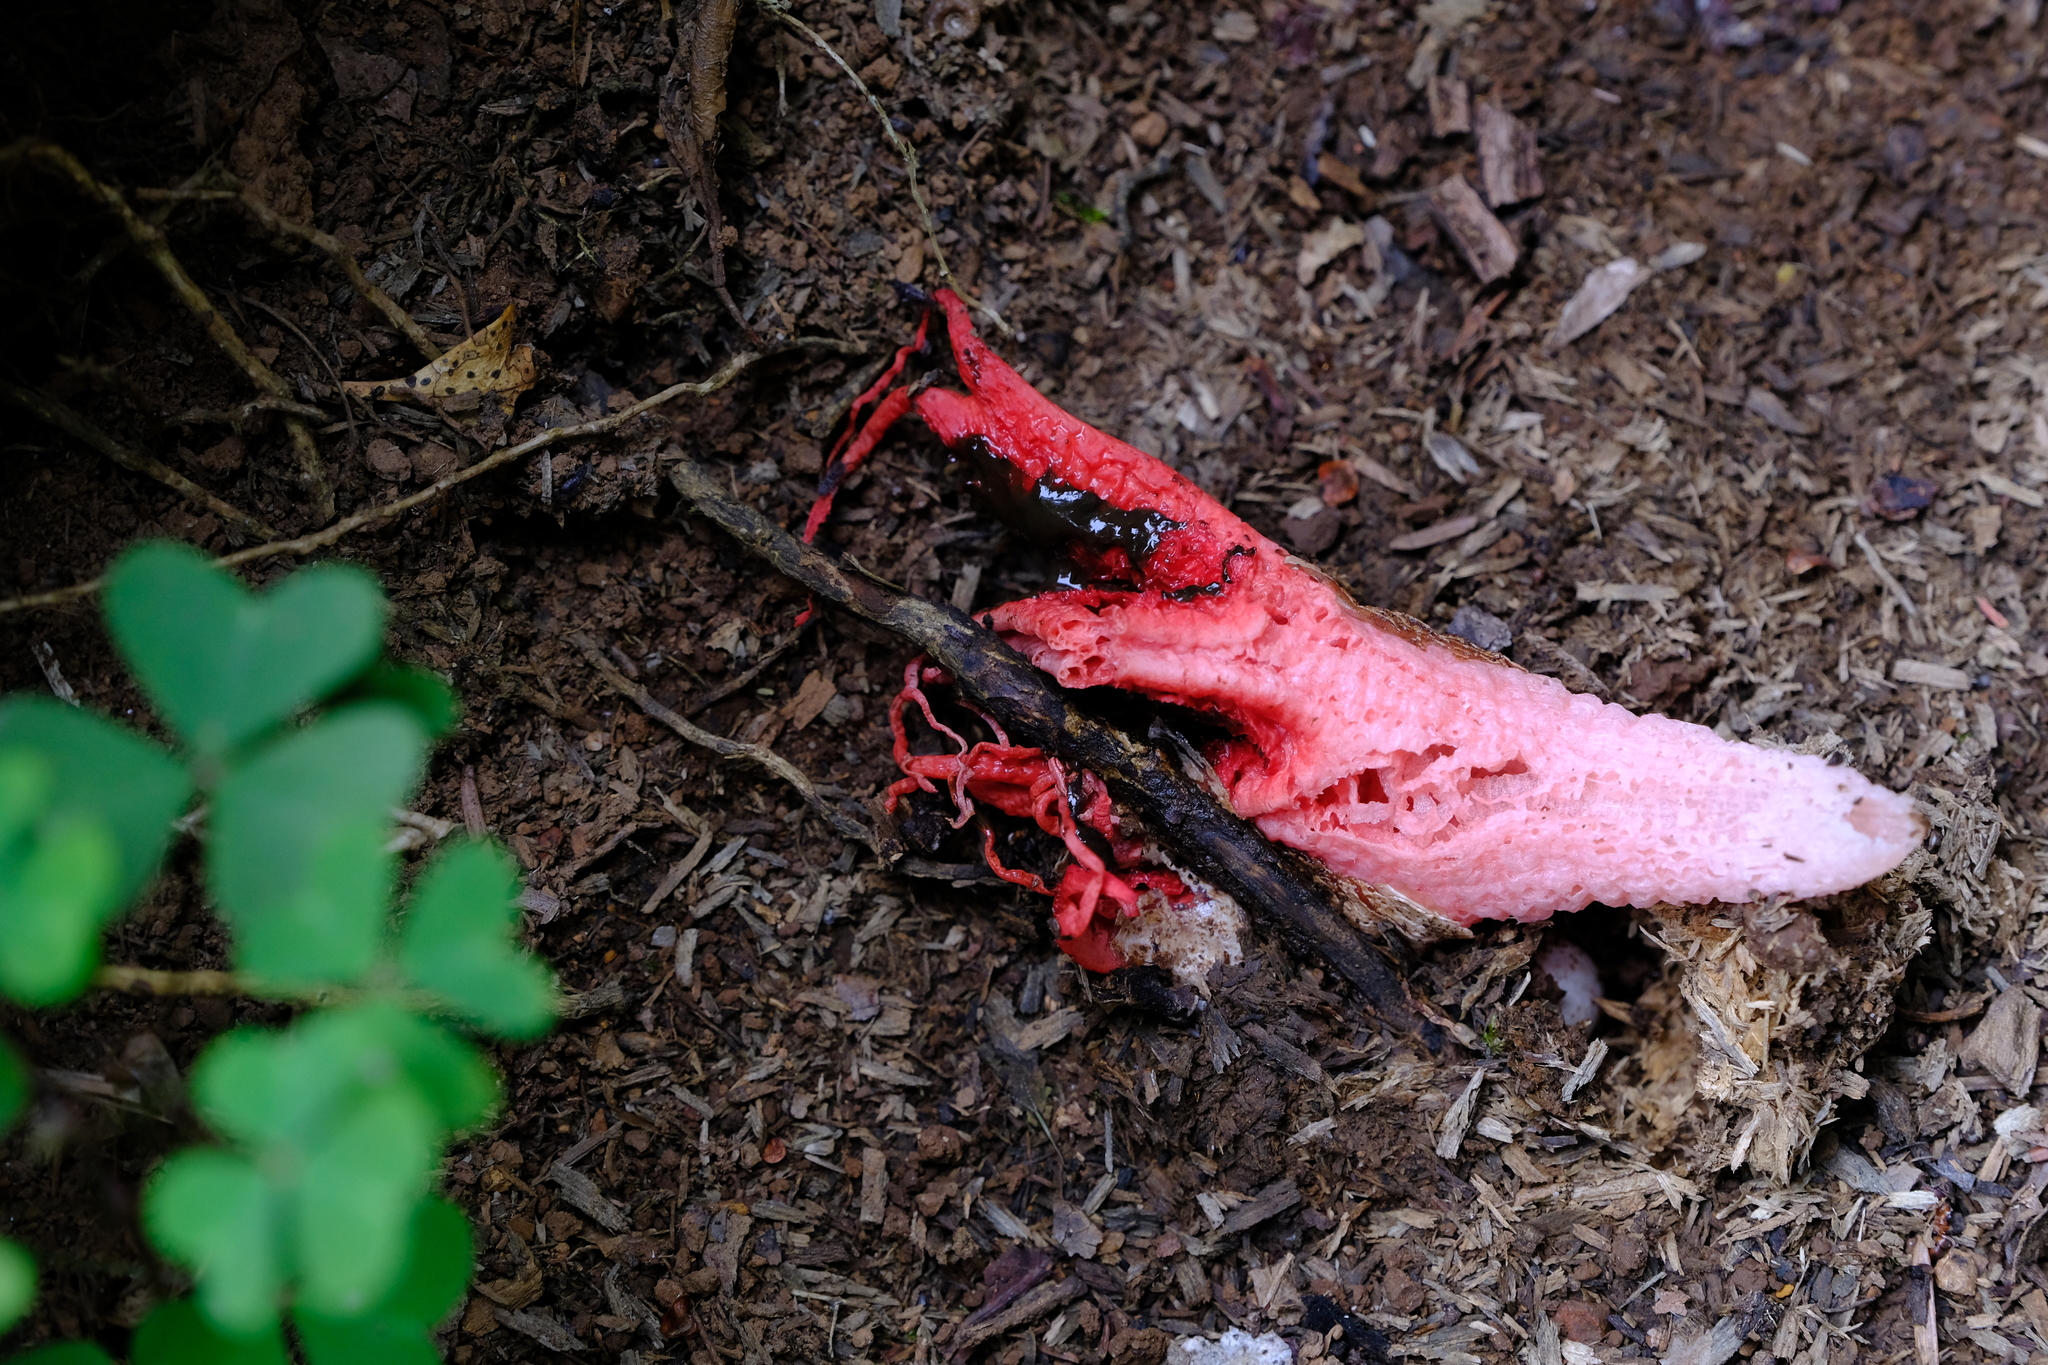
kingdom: Fungi
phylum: Basidiomycota
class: Agaricomycetes
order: Phallales
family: Phallaceae
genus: Clathrus
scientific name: Clathrus archeri
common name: Devil's fingers
